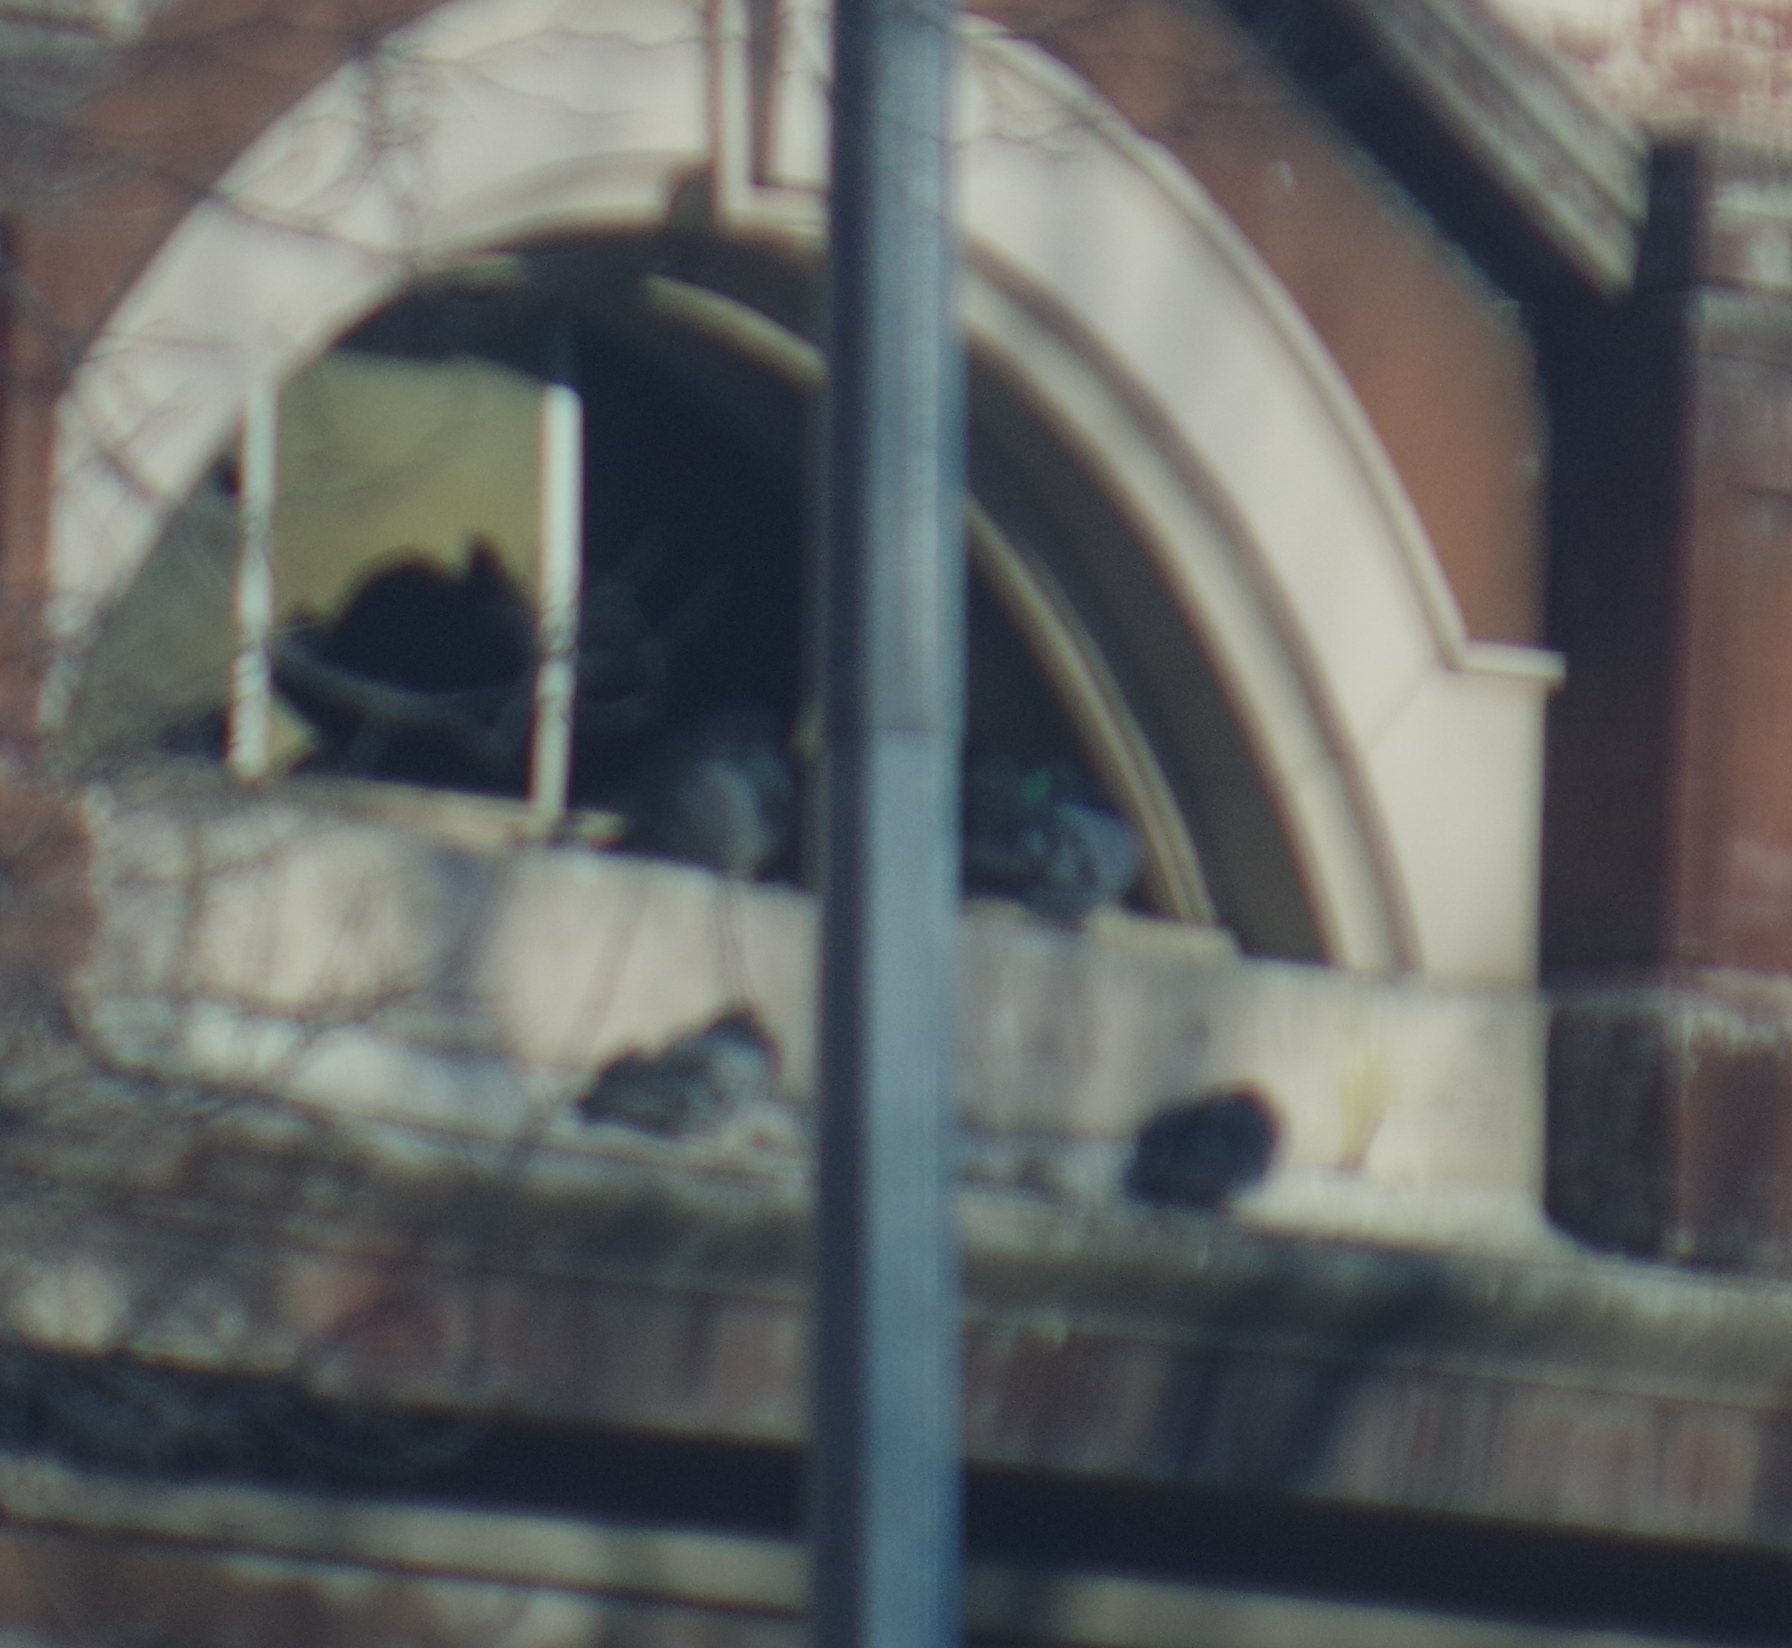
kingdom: Animalia
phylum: Chordata
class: Aves
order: Columbiformes
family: Columbidae
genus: Columba
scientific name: Columba livia
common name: Rock pigeon
